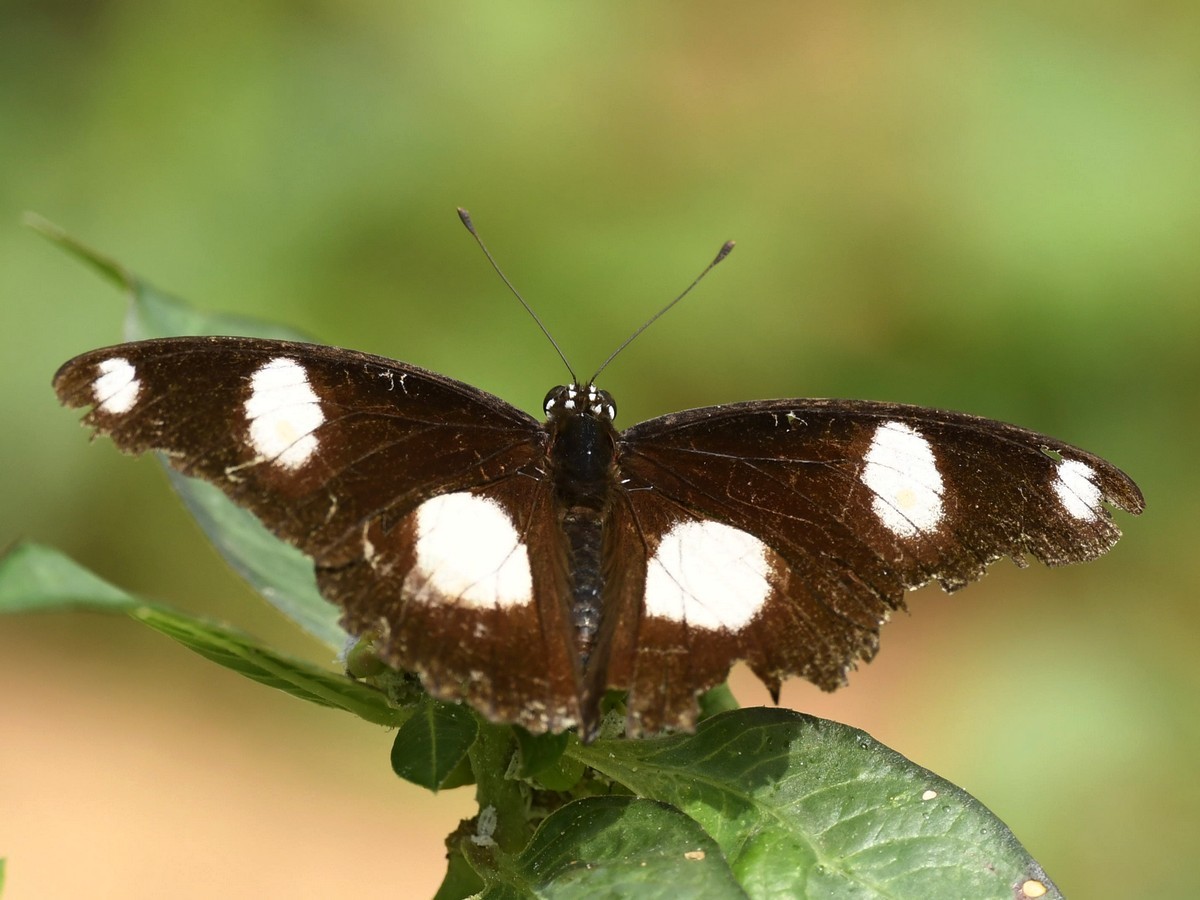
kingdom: Animalia
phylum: Arthropoda
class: Insecta
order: Lepidoptera
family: Nymphalidae
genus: Hypolimnas
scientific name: Hypolimnas misippus
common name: False plain tiger
